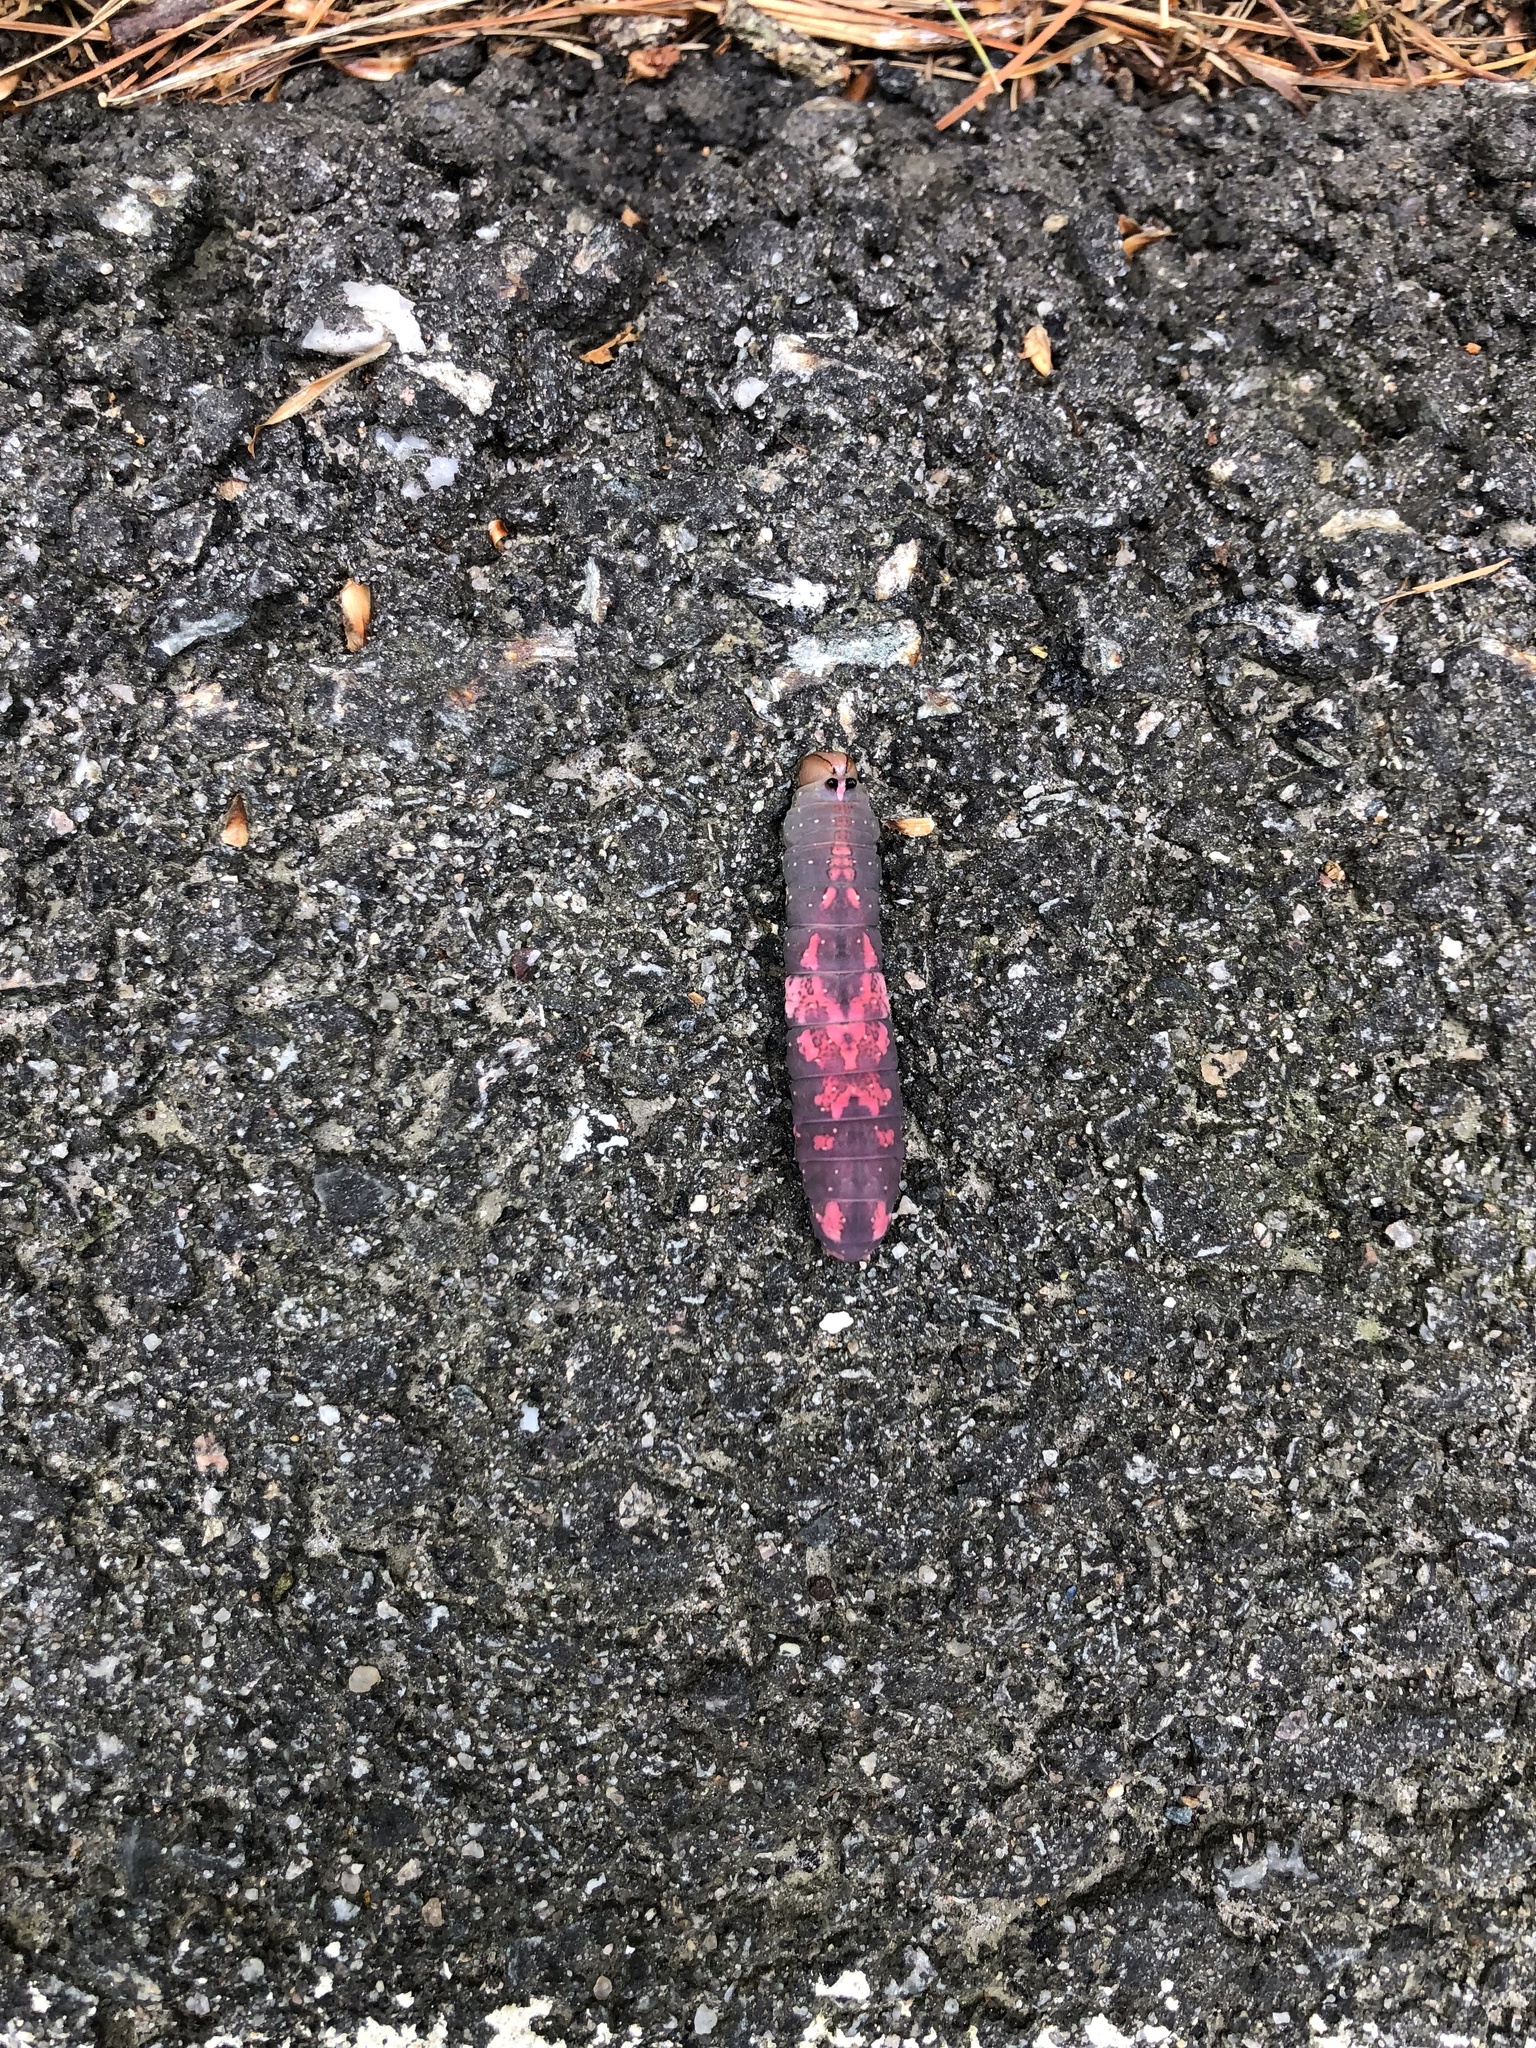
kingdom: Animalia
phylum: Arthropoda
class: Insecta
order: Lepidoptera
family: Notodontidae
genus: Heterocampa
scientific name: Heterocampa
